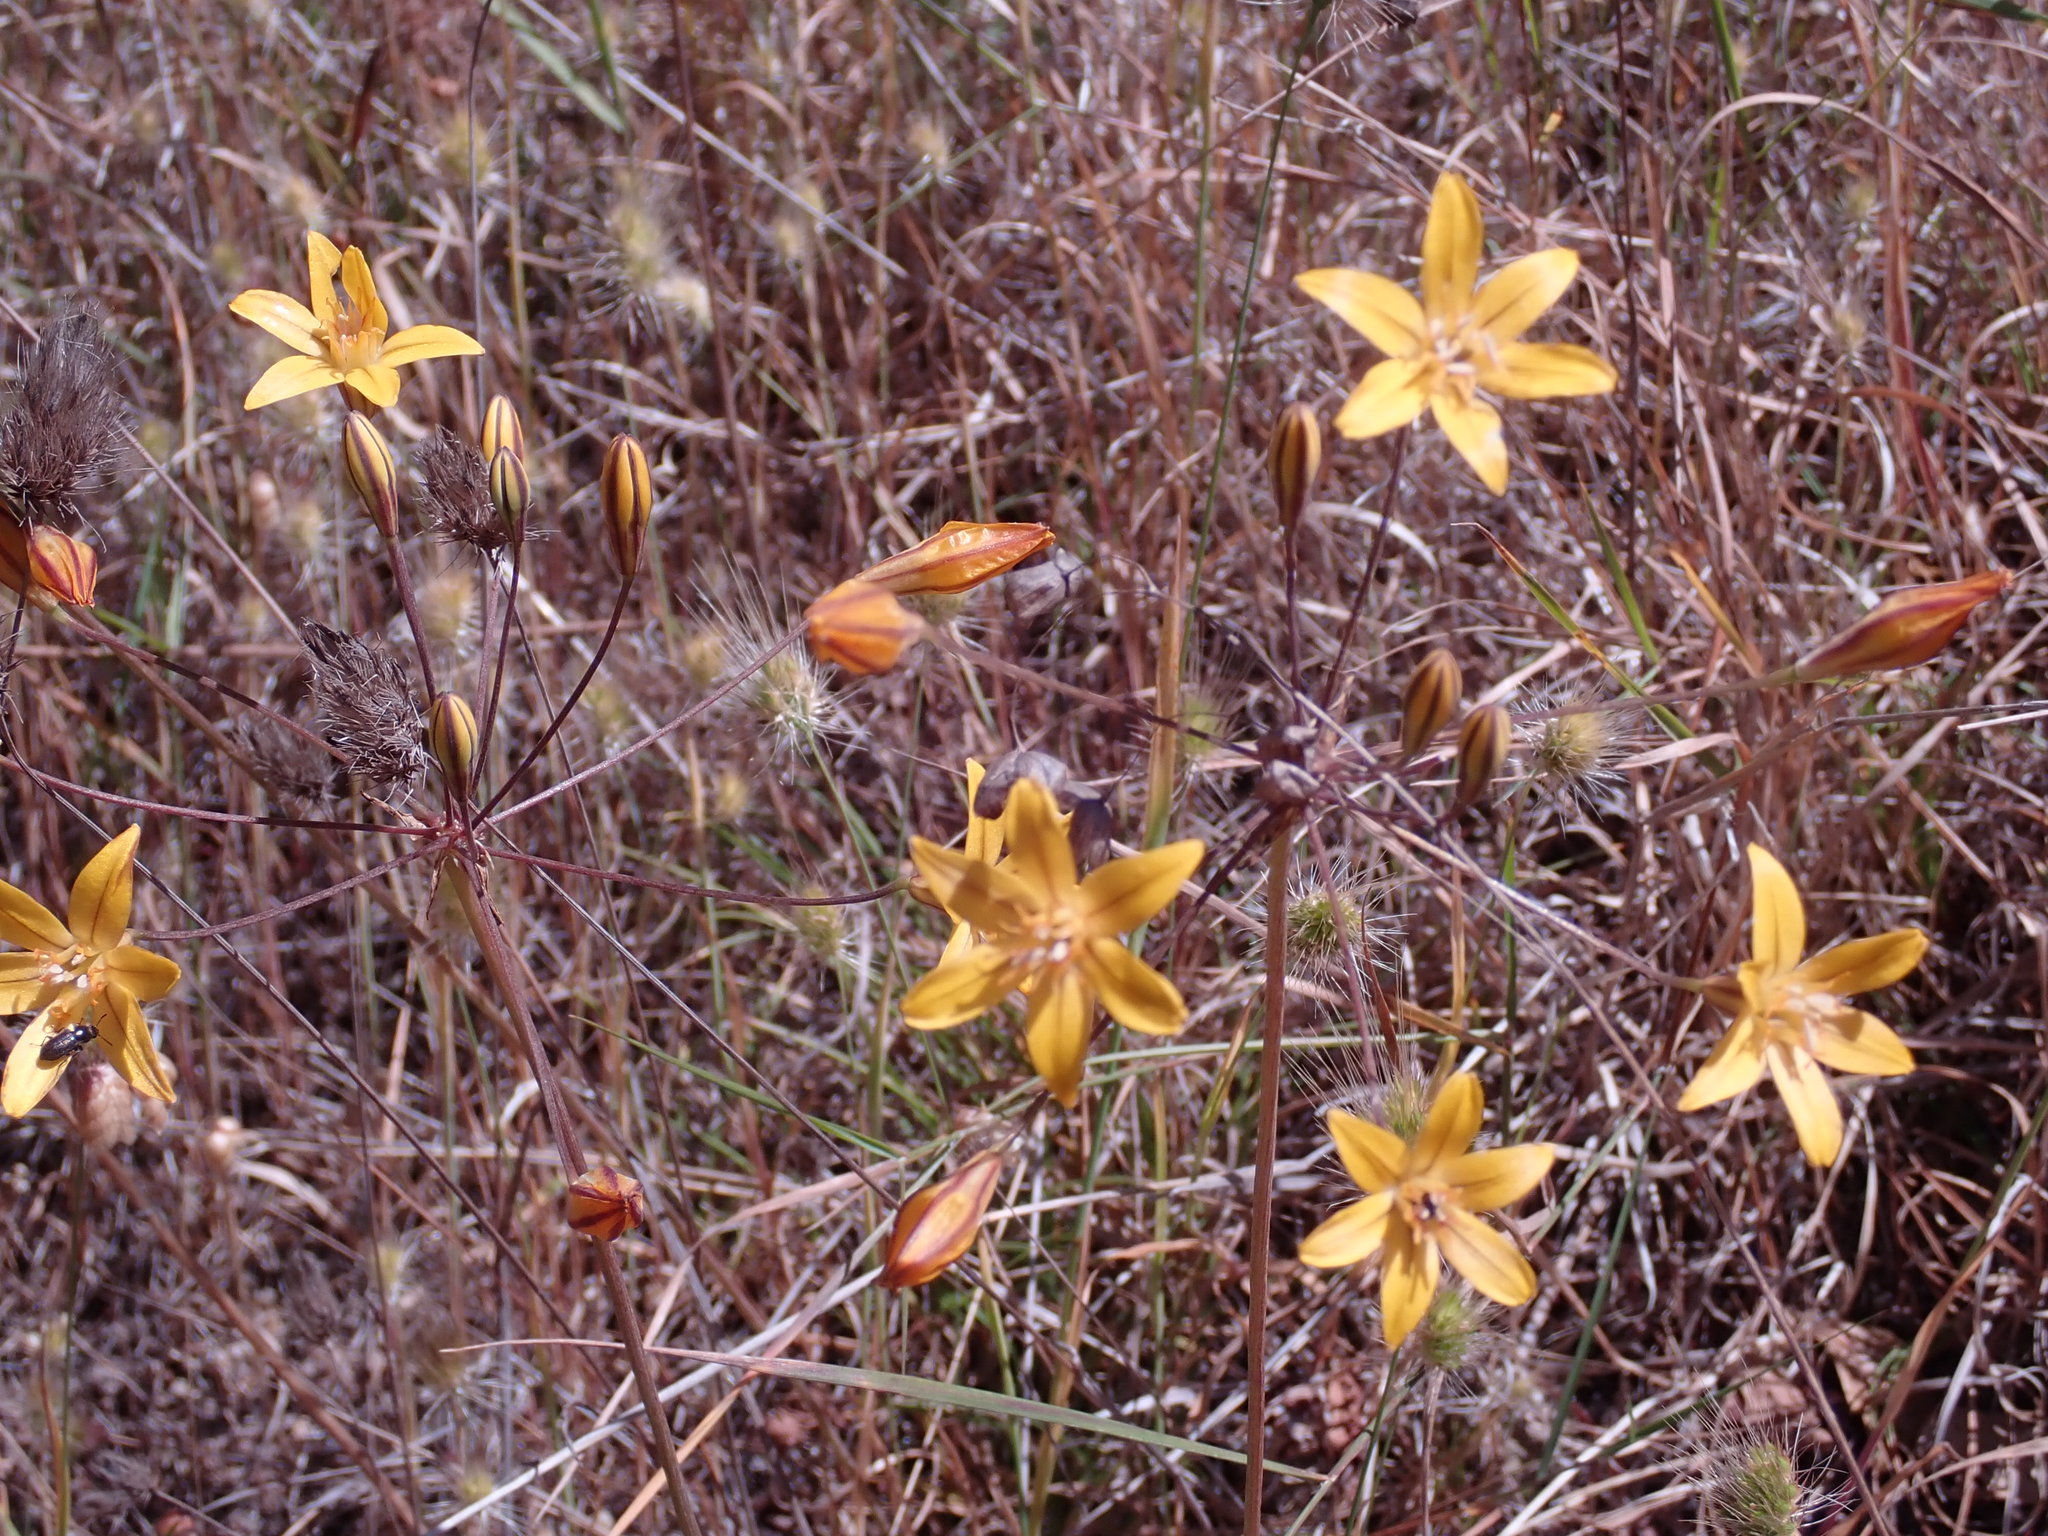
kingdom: Plantae
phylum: Tracheophyta
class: Liliopsida
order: Asparagales
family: Asparagaceae
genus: Triteleia
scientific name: Triteleia ixioides
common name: Yellow-brodiaea
